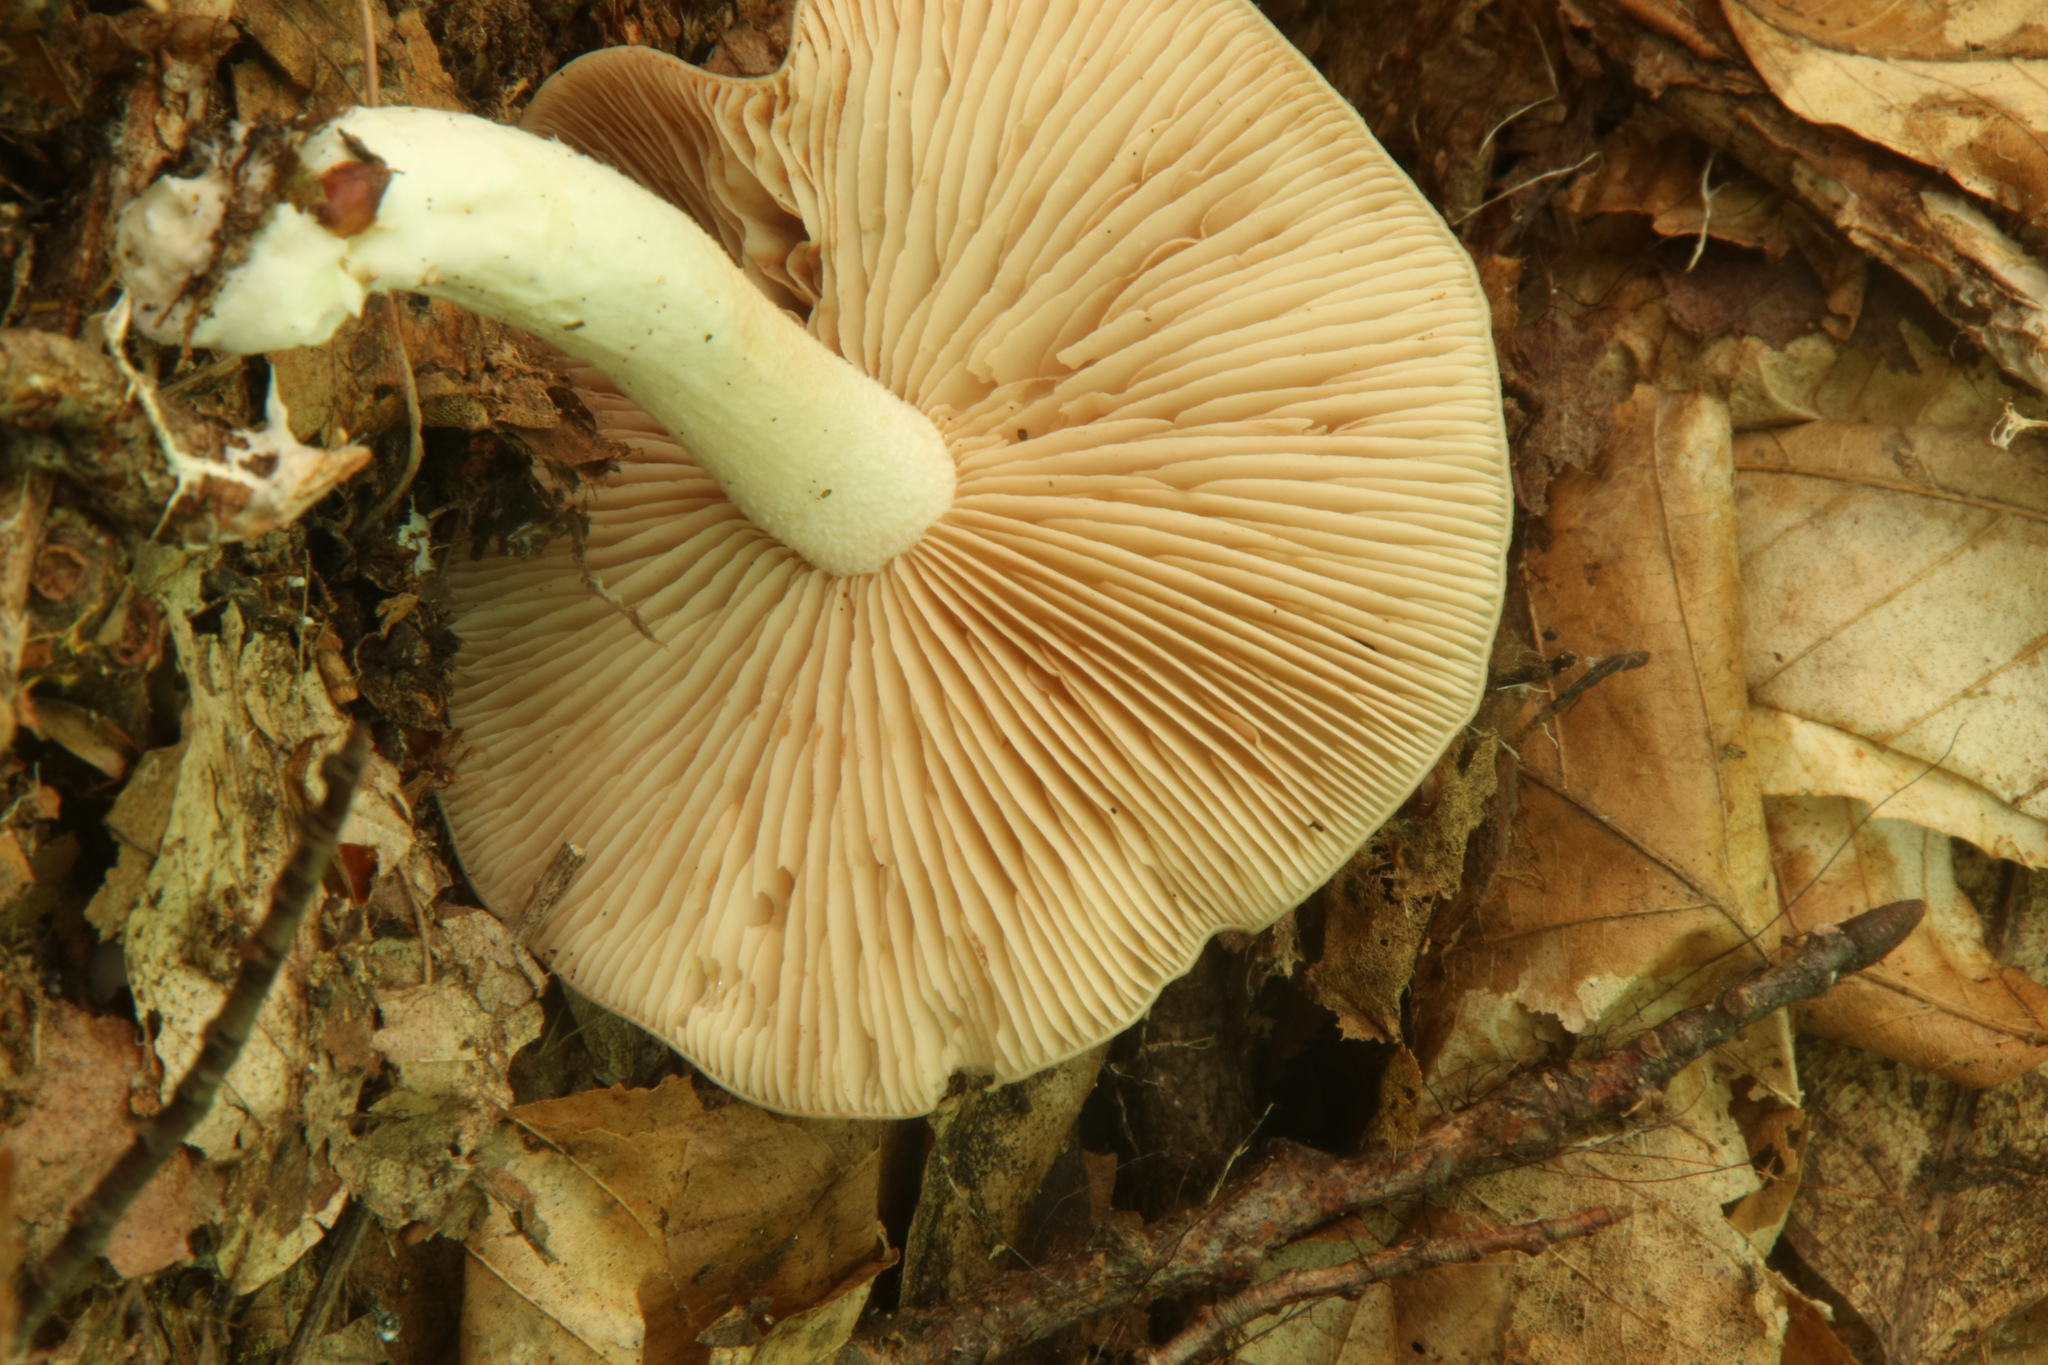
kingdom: Fungi
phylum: Basidiomycota
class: Agaricomycetes
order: Agaricales
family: Entolomataceae
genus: Entoloma
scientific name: Entoloma bicolor
